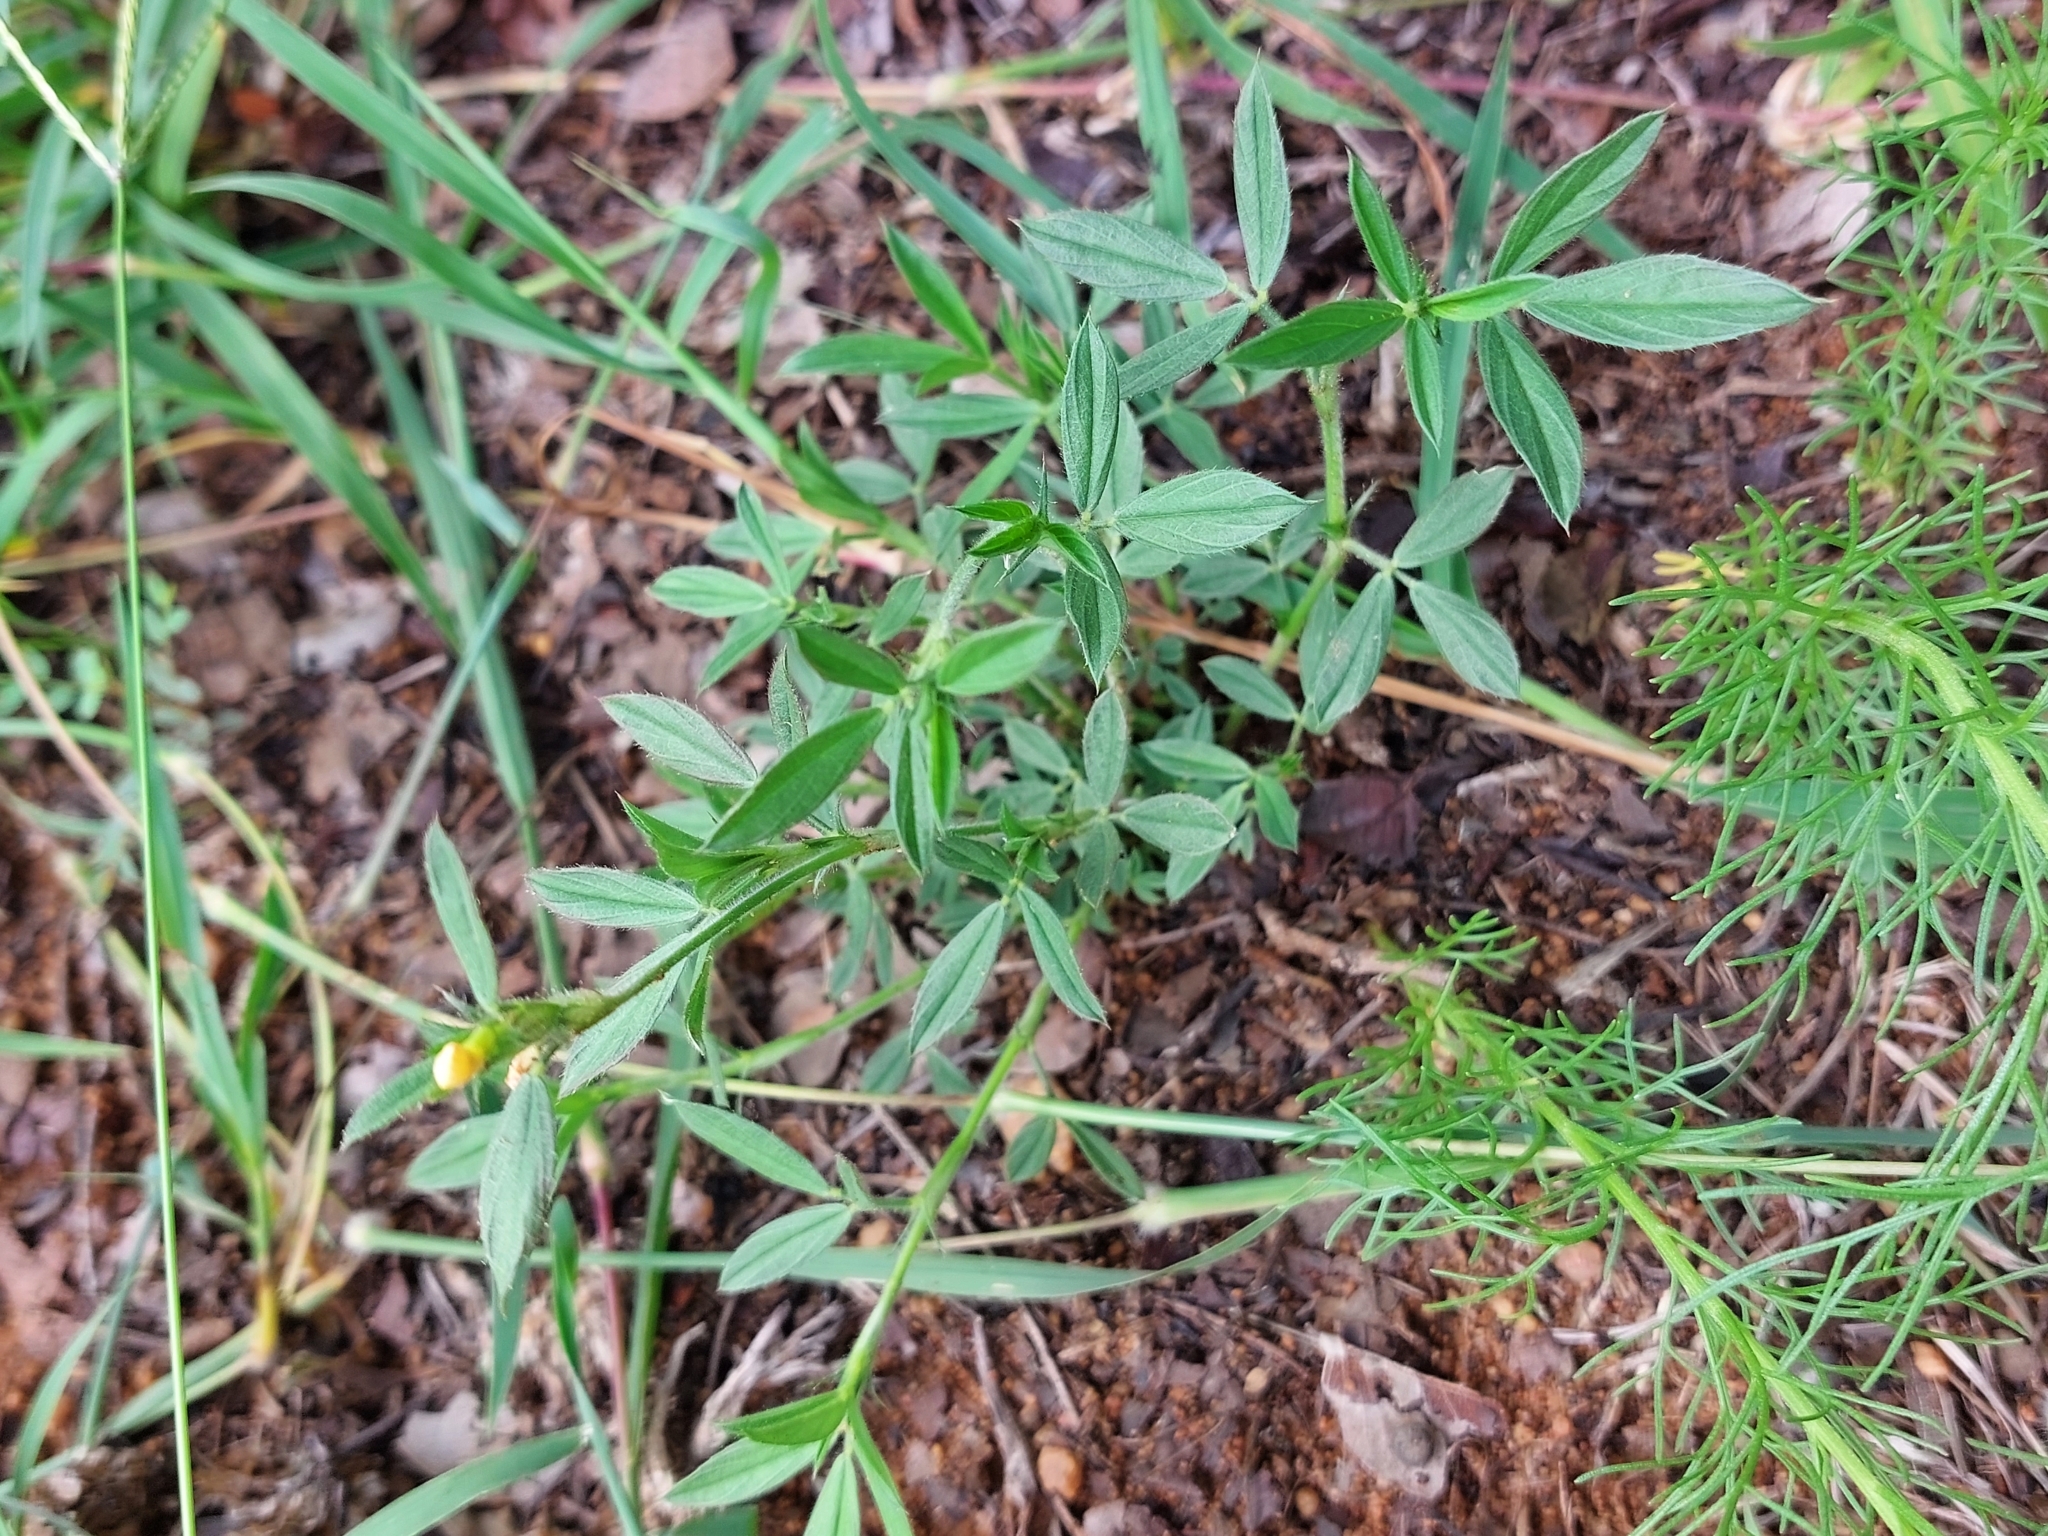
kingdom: Plantae
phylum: Tracheophyta
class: Magnoliopsida
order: Fabales
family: Fabaceae
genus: Stylosanthes
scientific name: Stylosanthes fruticosa
